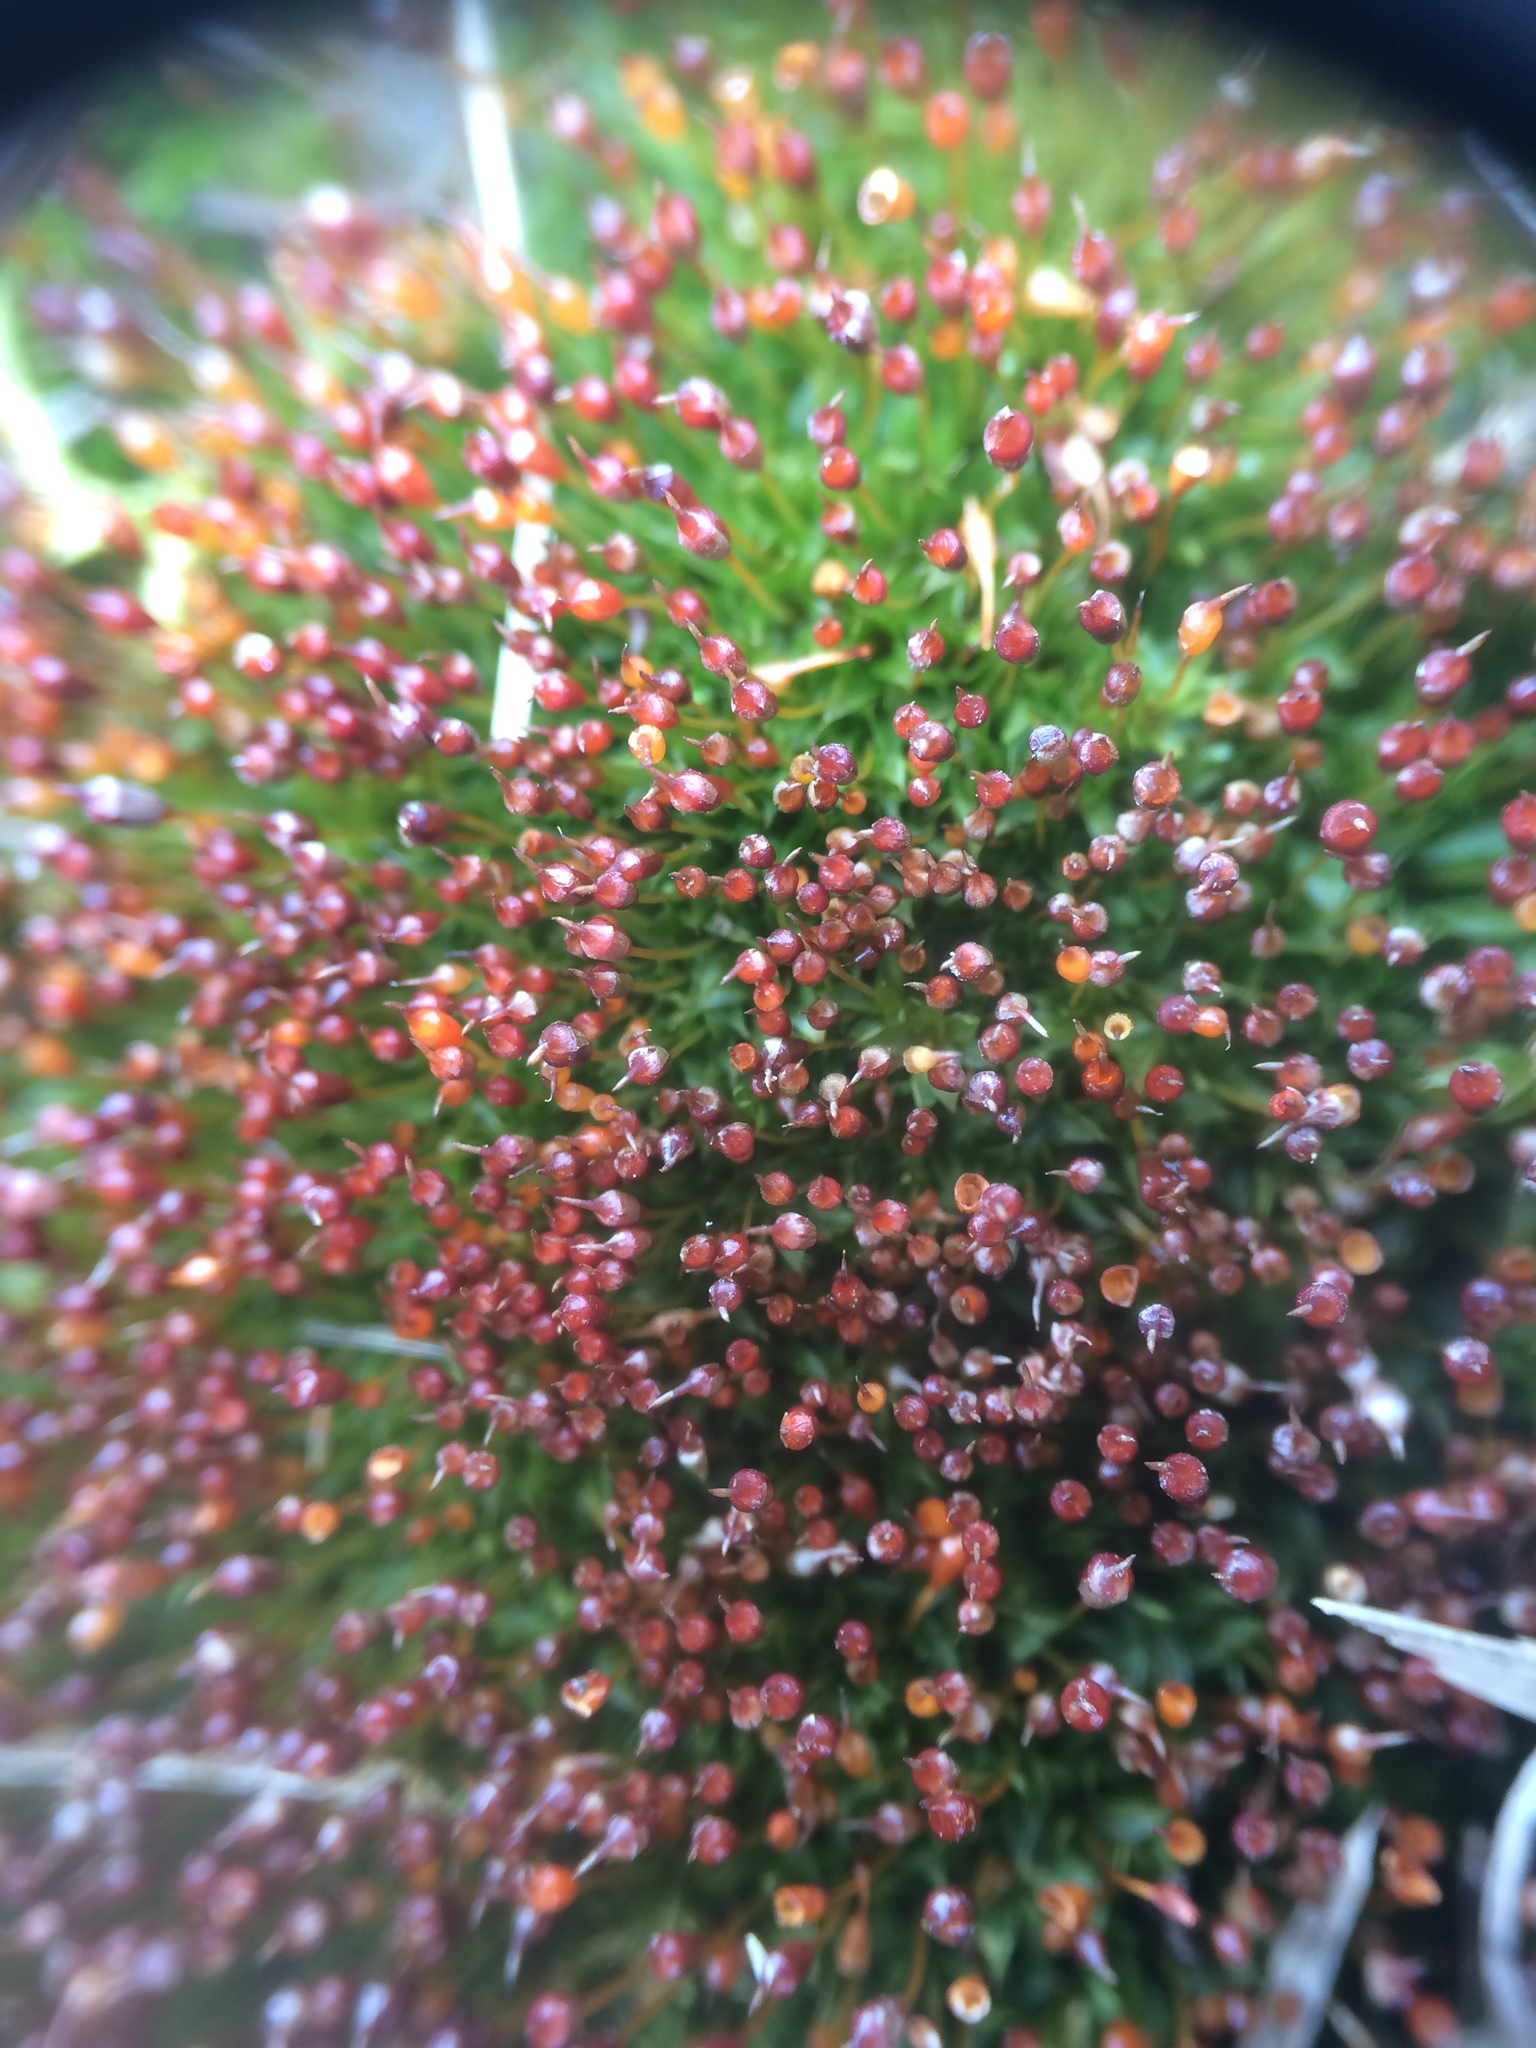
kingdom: Plantae
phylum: Bryophyta
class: Bryopsida
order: Pottiales
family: Pottiaceae
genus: Tortula
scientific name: Tortula truncata
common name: Truncated screw moss
